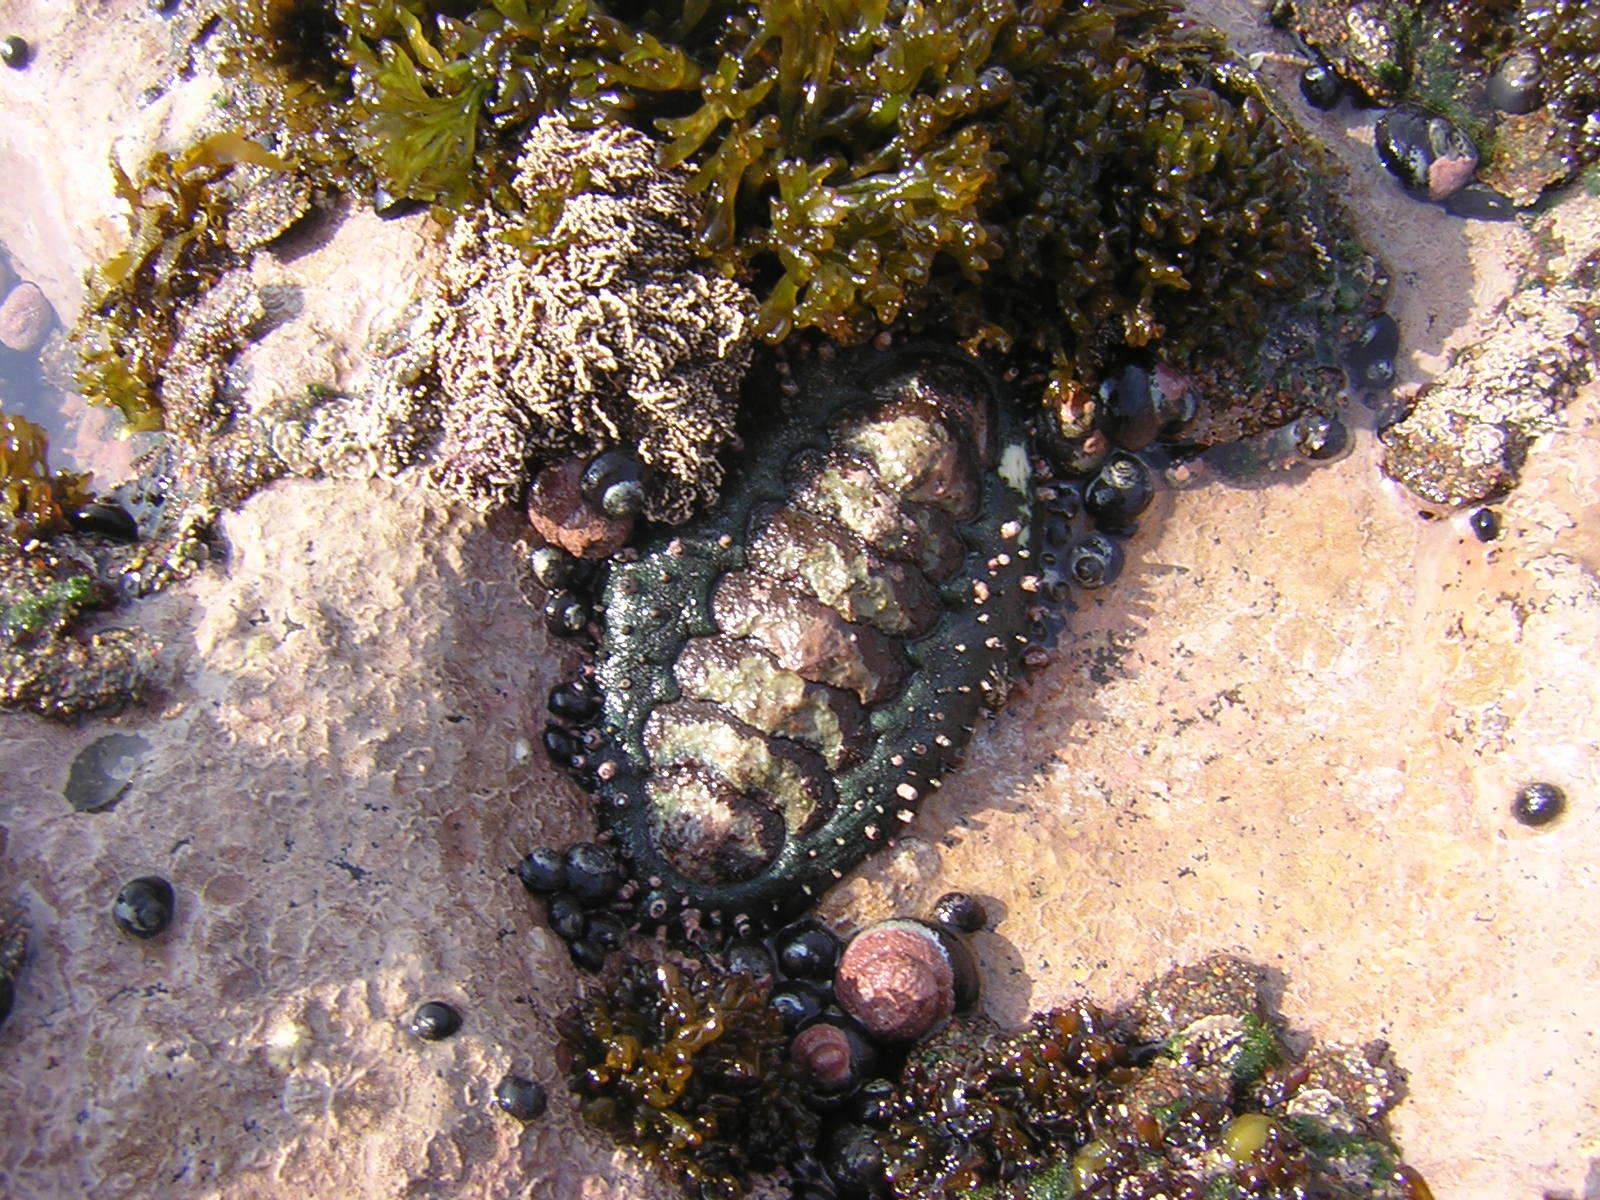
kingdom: Animalia
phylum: Mollusca
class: Polyplacophora
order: Chitonida
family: Chitonidae
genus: Enoplochiton
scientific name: Enoplochiton echinatus
